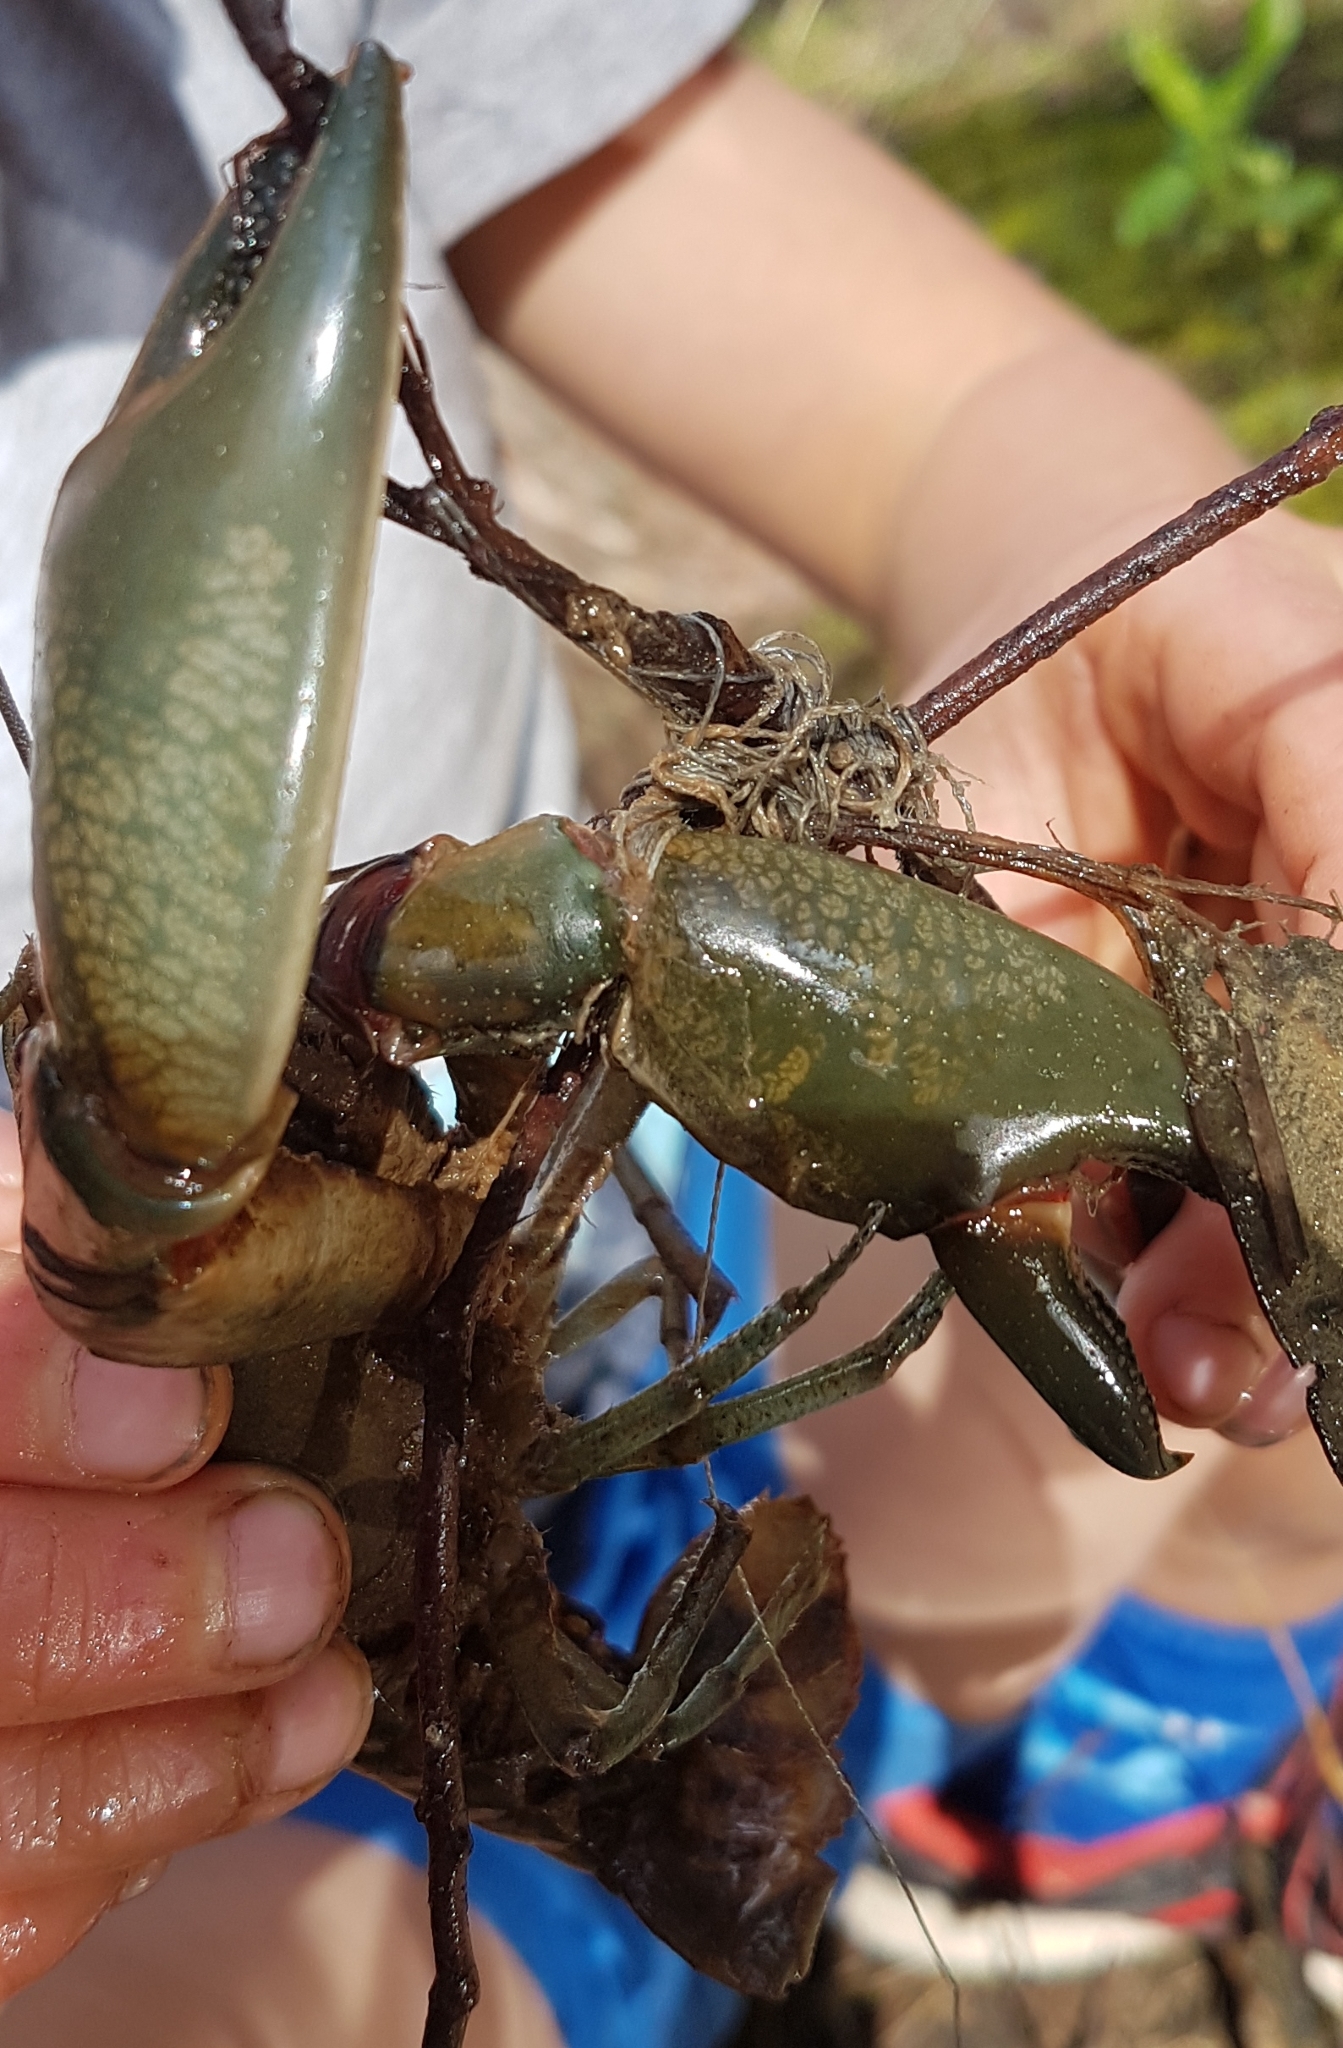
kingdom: Animalia
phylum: Arthropoda
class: Malacostraca
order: Decapoda
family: Parastacidae
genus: Cherax
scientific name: Cherax destructor
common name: Yabby
